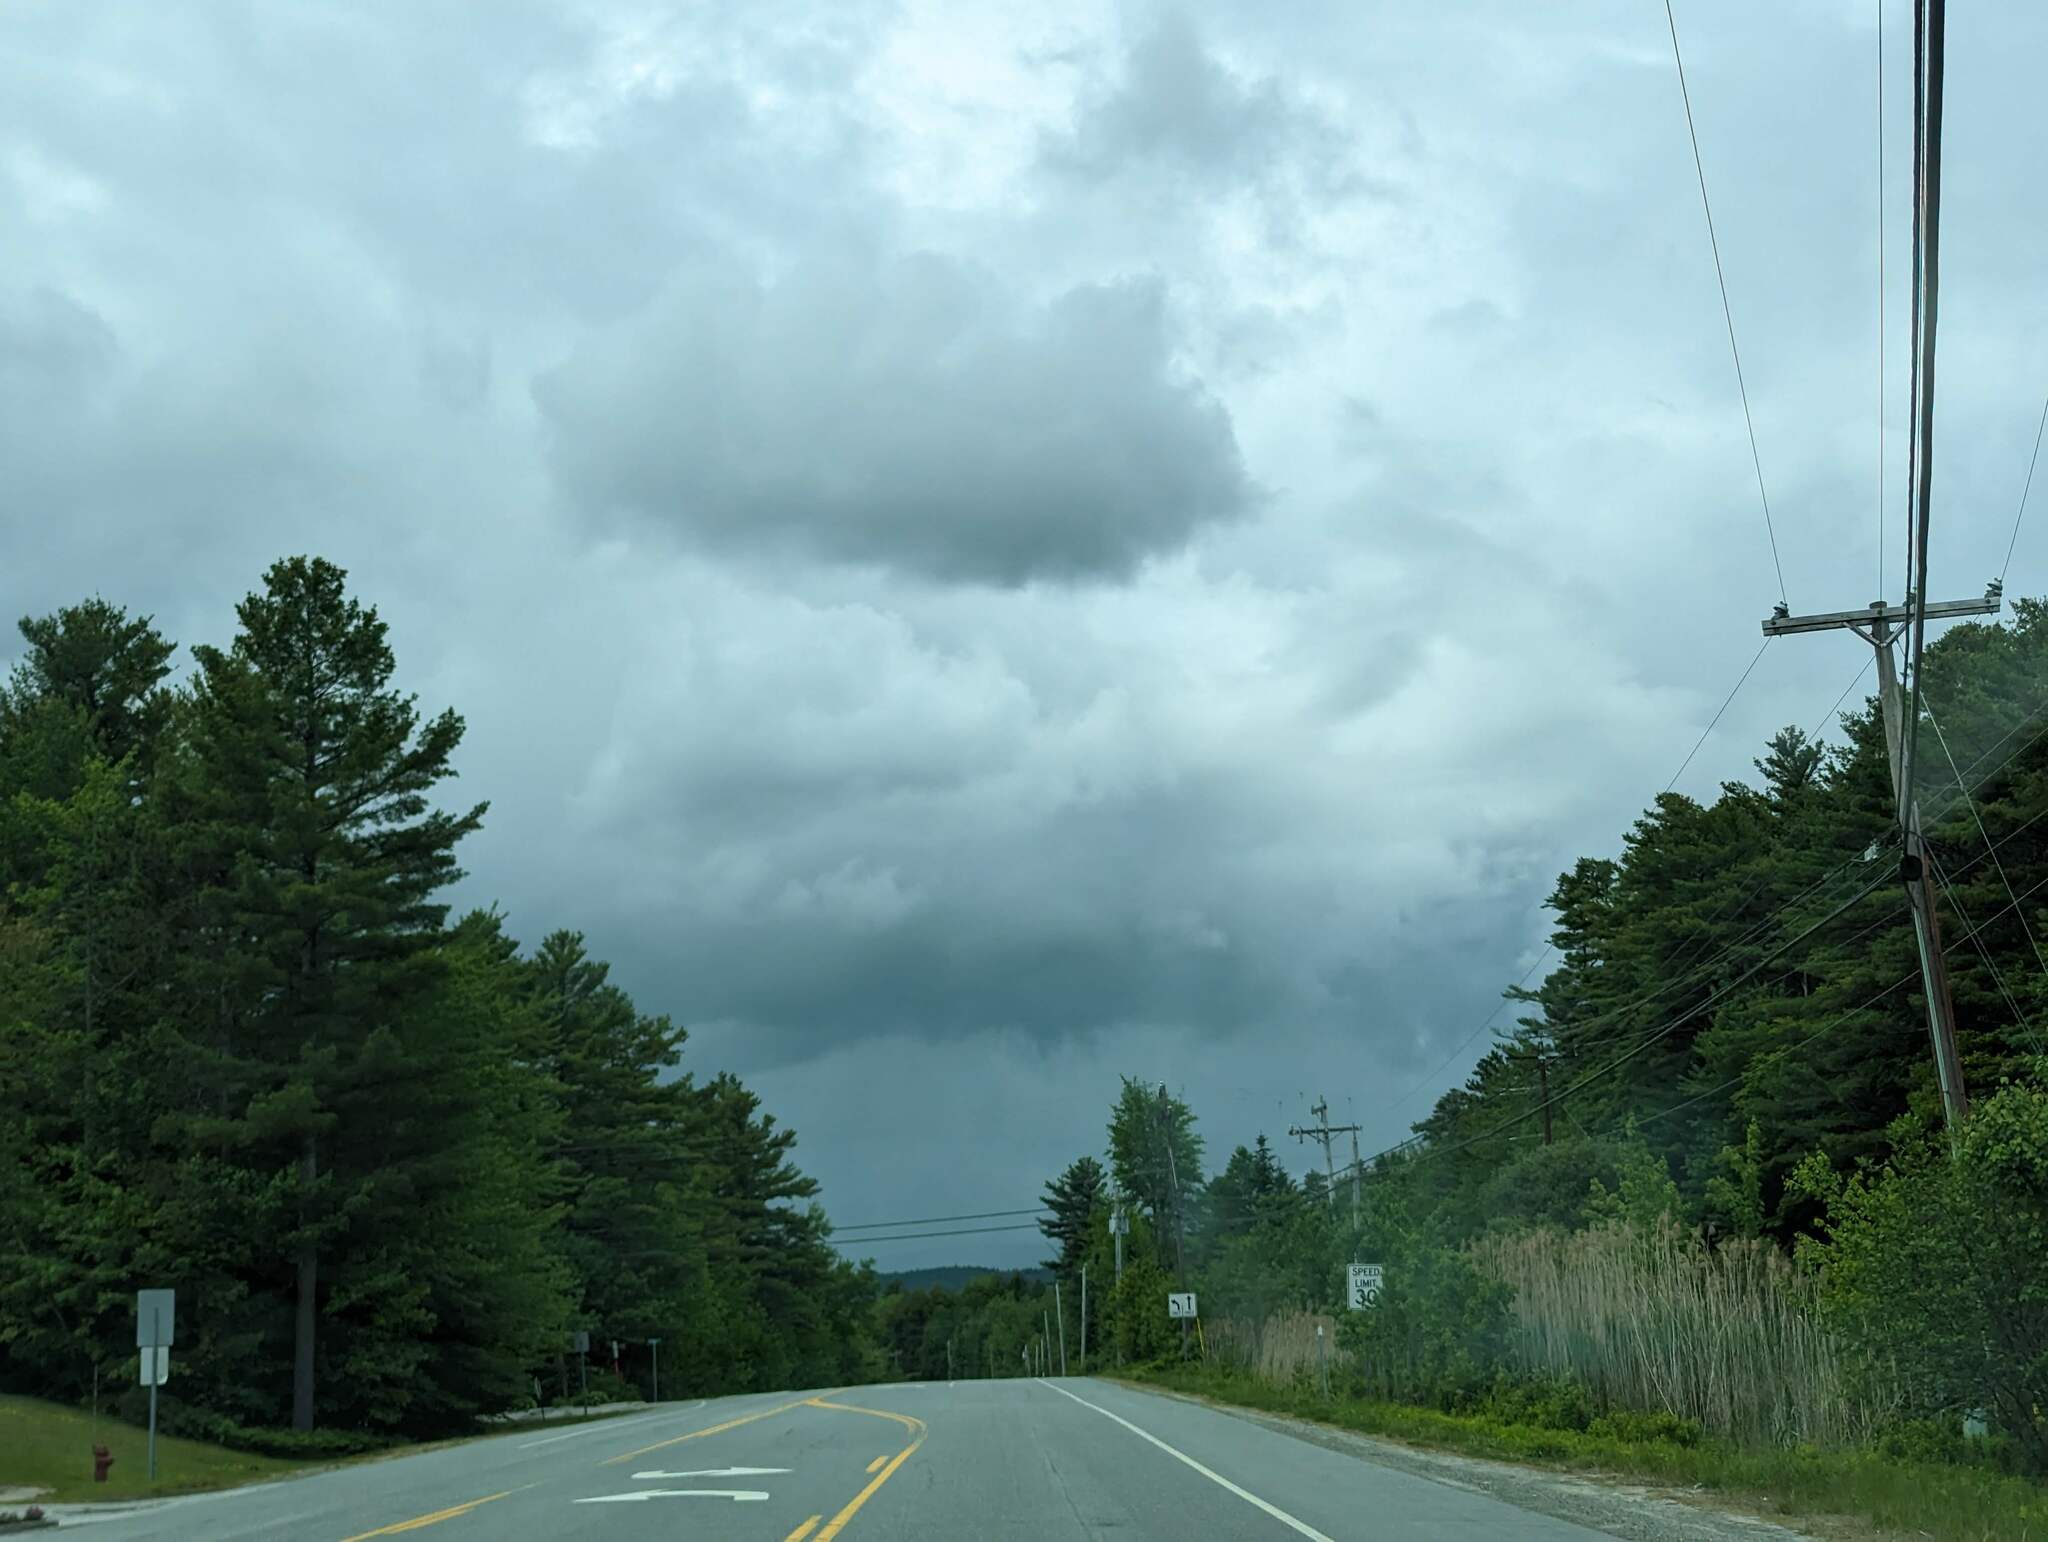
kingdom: Plantae
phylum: Tracheophyta
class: Pinopsida
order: Pinales
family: Pinaceae
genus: Pinus
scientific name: Pinus strobus
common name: Weymouth pine
